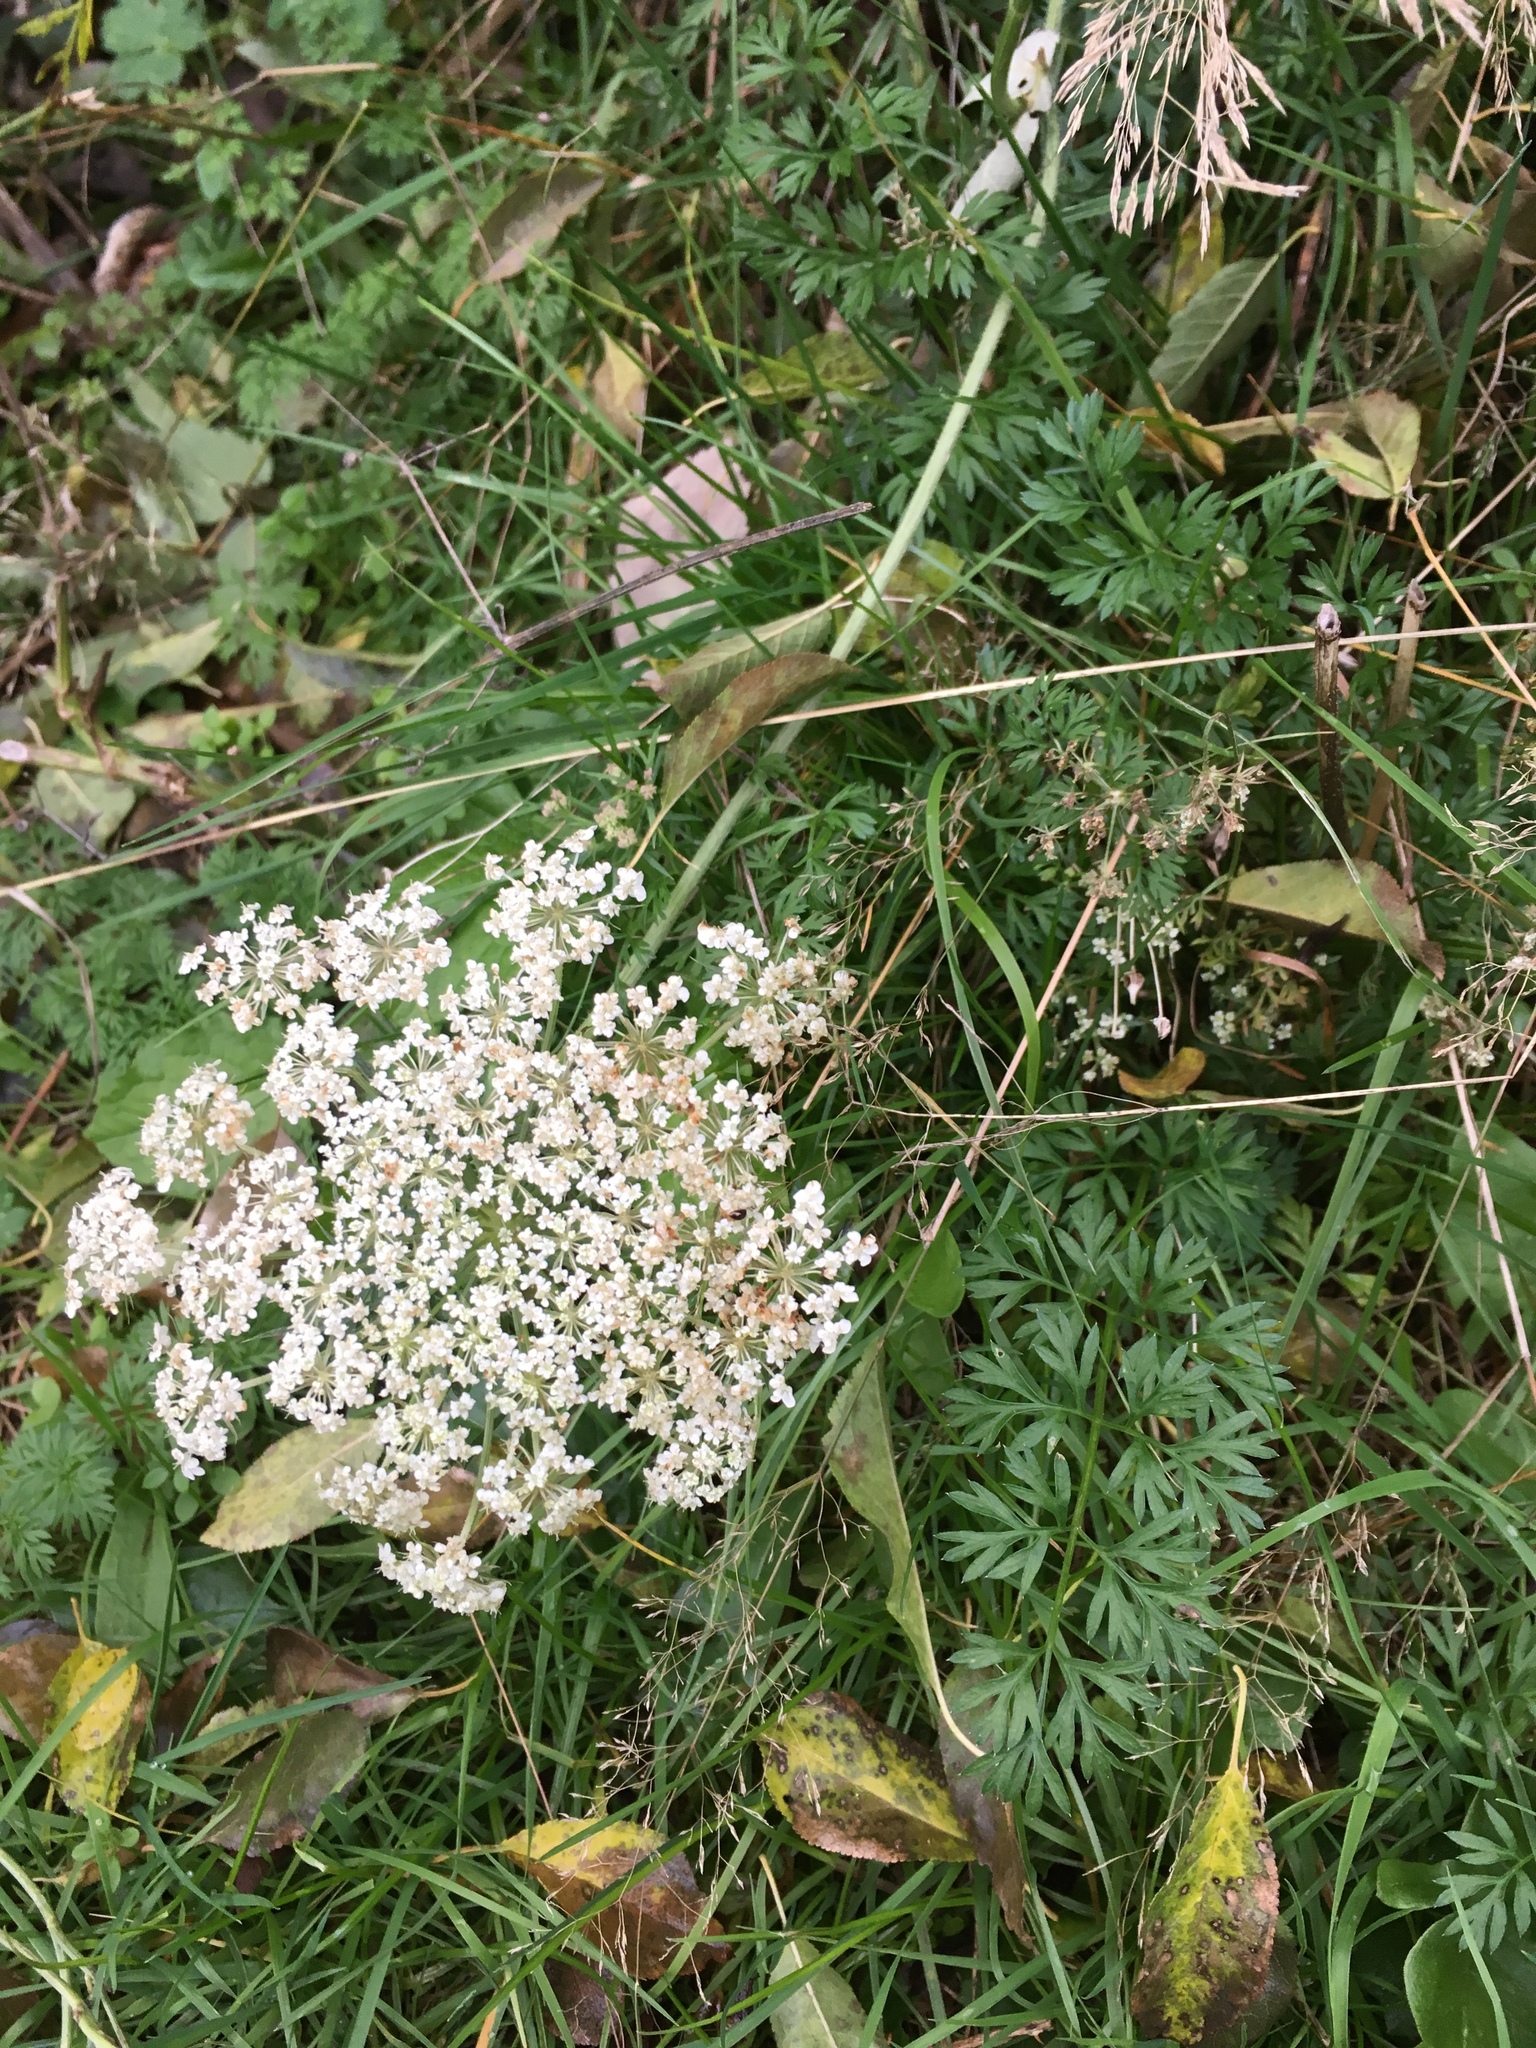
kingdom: Plantae
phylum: Tracheophyta
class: Magnoliopsida
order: Apiales
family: Apiaceae
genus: Daucus
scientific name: Daucus carota
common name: Wild carrot
